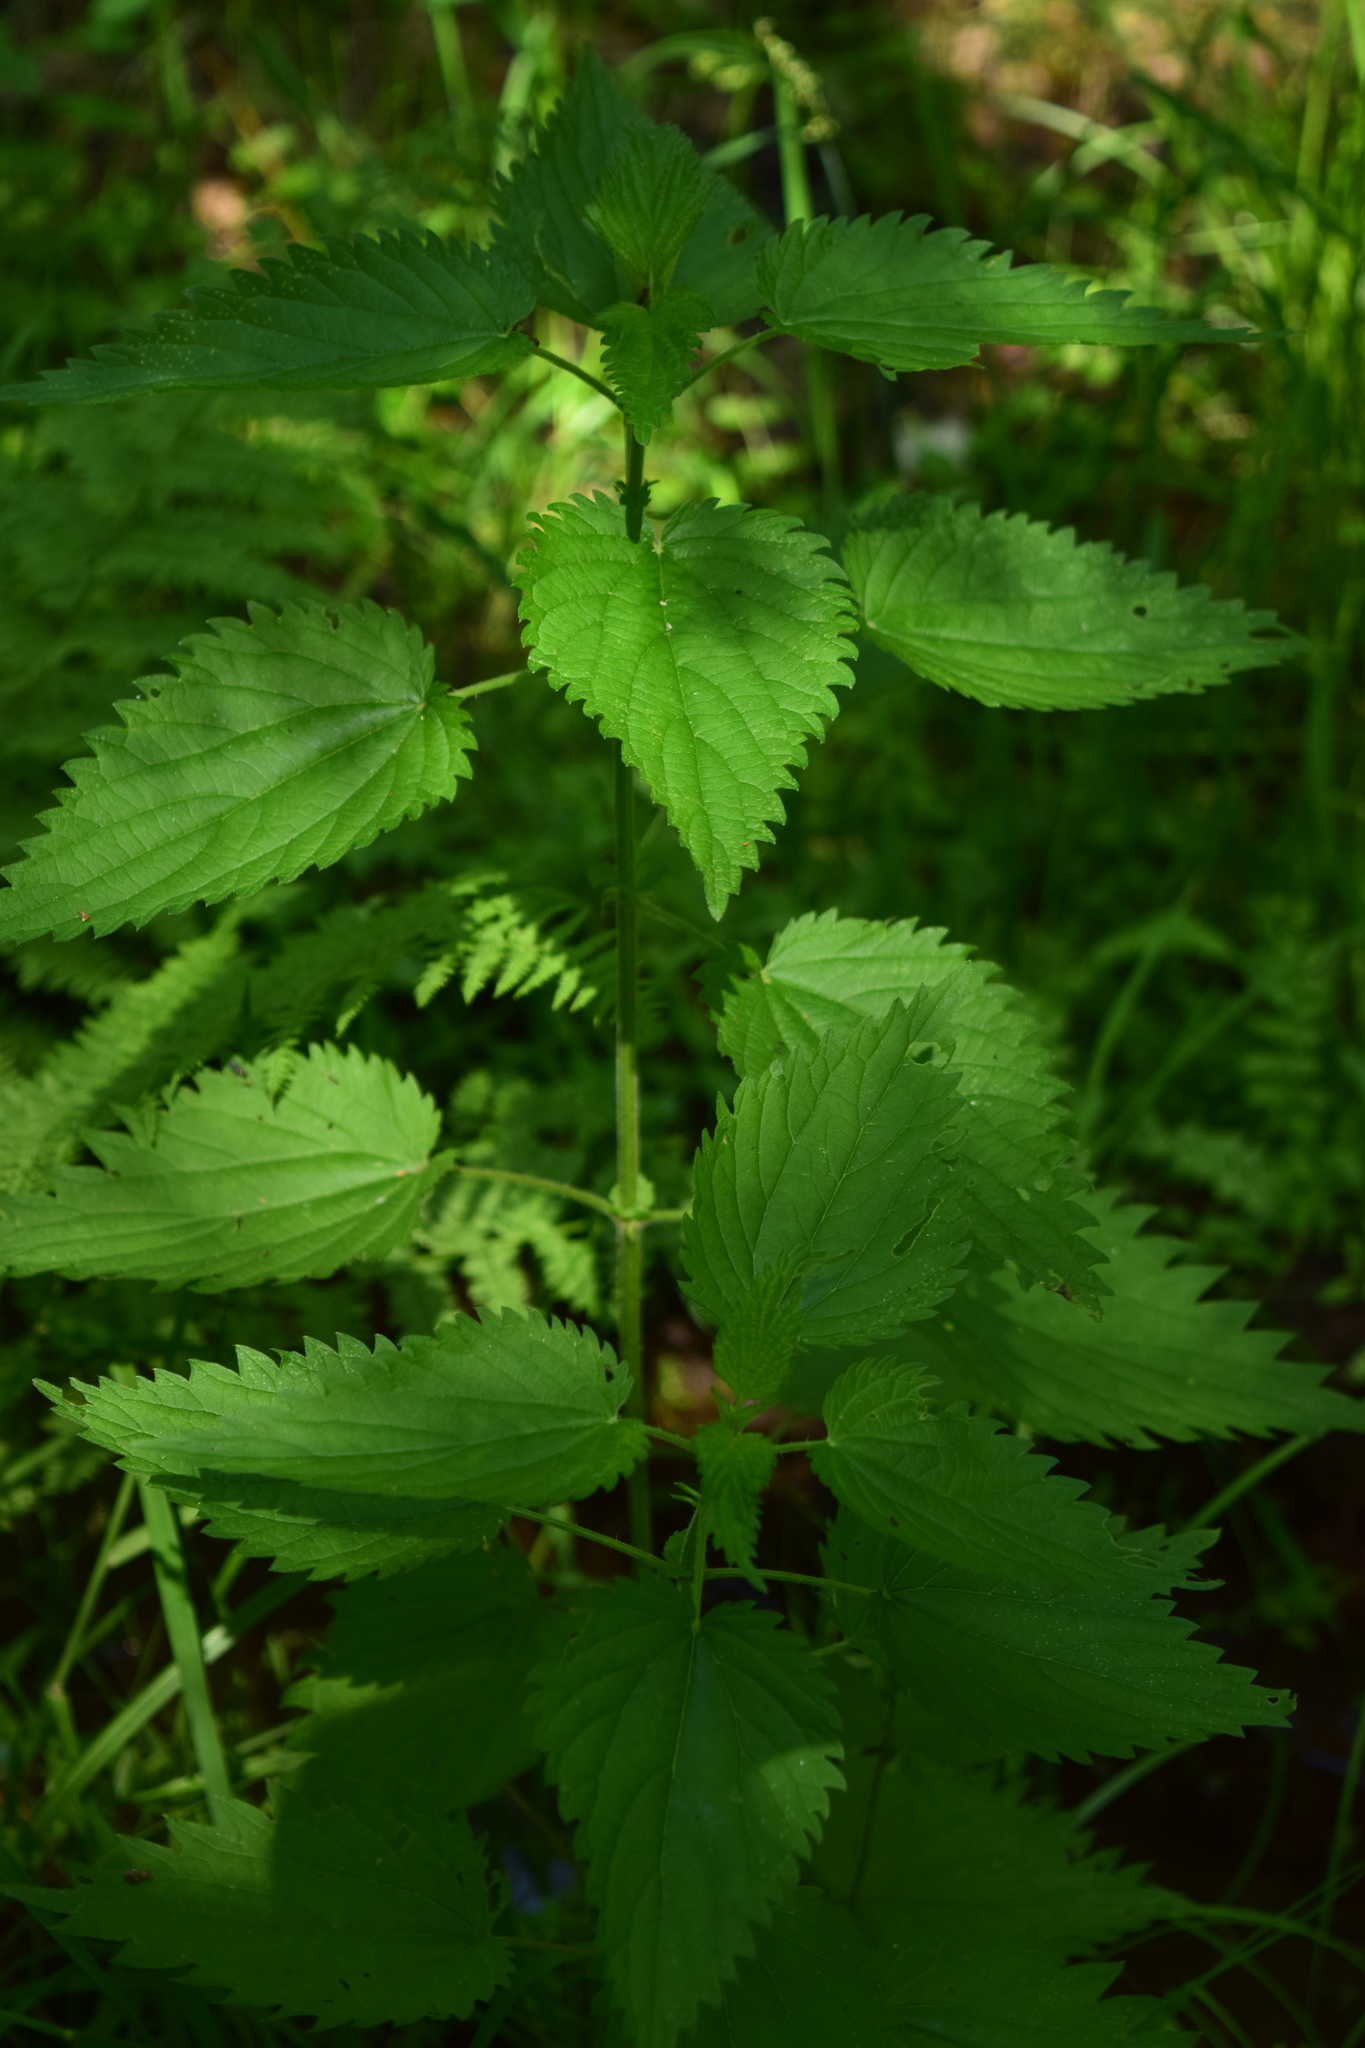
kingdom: Plantae
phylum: Tracheophyta
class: Magnoliopsida
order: Rosales
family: Urticaceae
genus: Urtica
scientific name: Urtica dioica
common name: Common nettle
